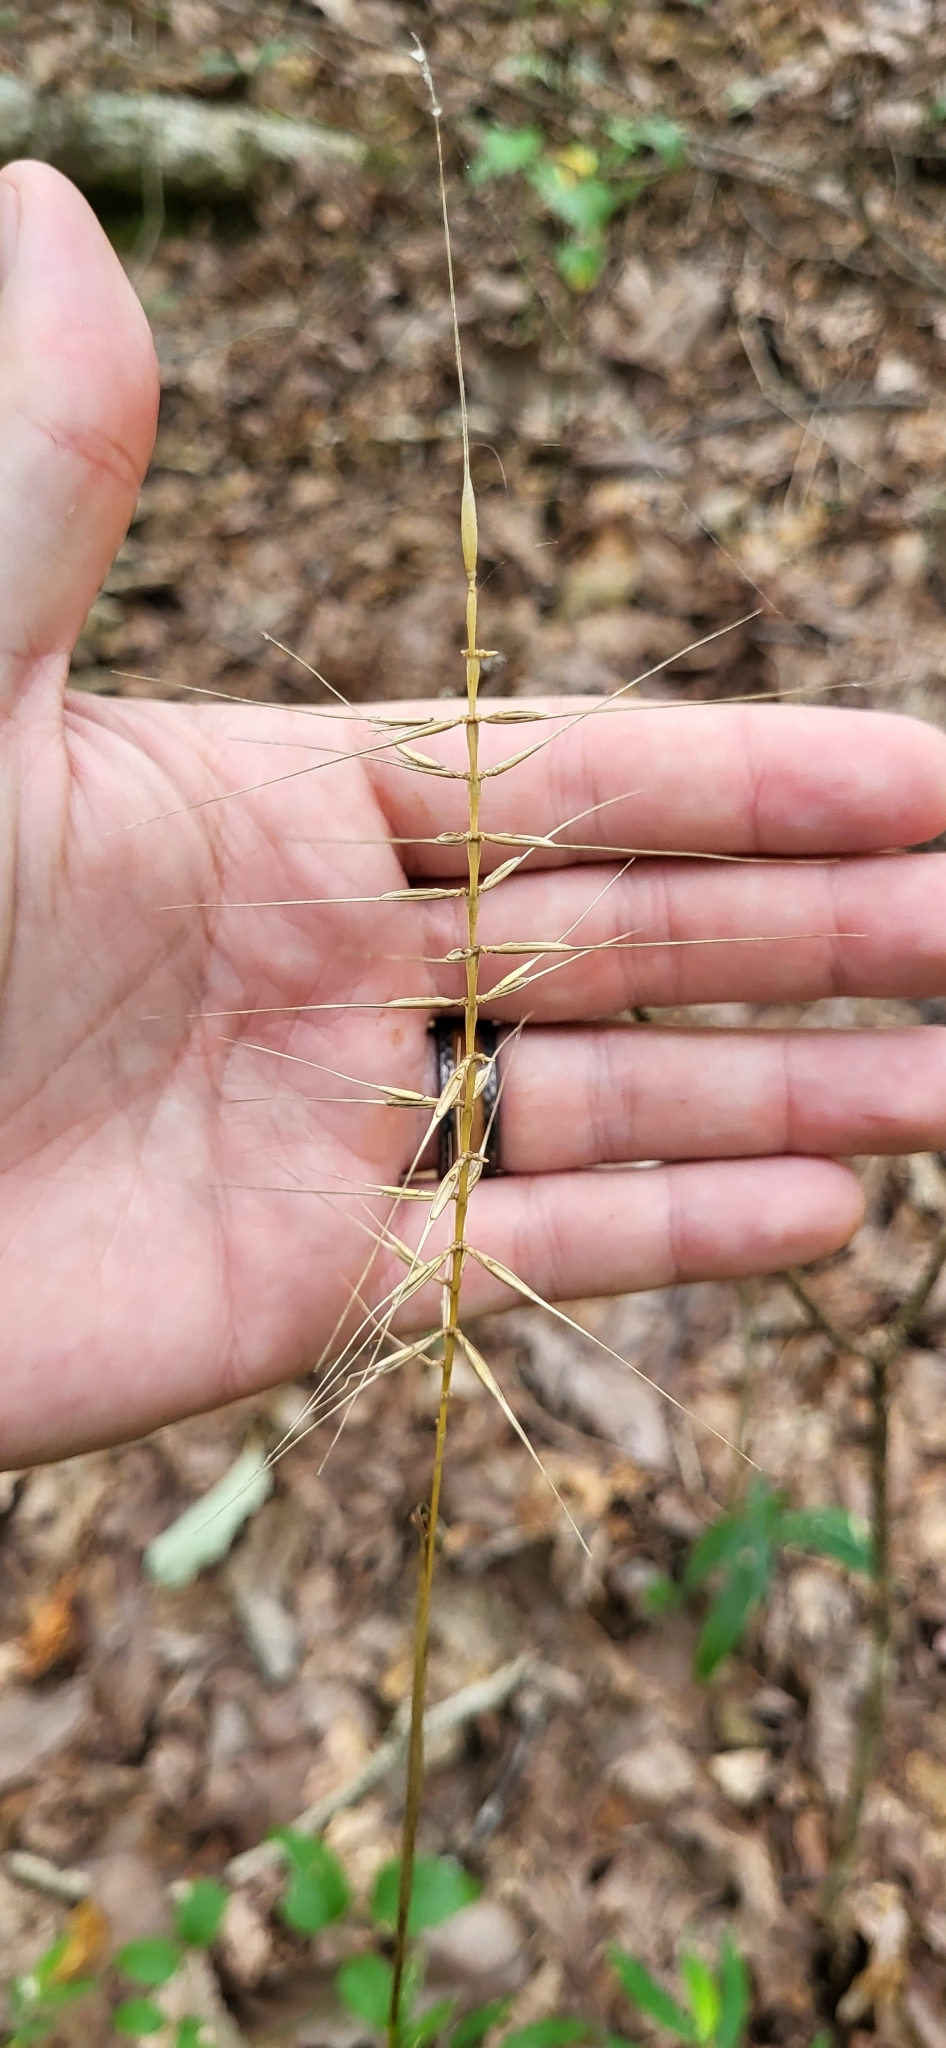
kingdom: Plantae
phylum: Tracheophyta
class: Liliopsida
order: Poales
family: Poaceae
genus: Elymus
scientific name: Elymus hystrix
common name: Bottlebrush grass
